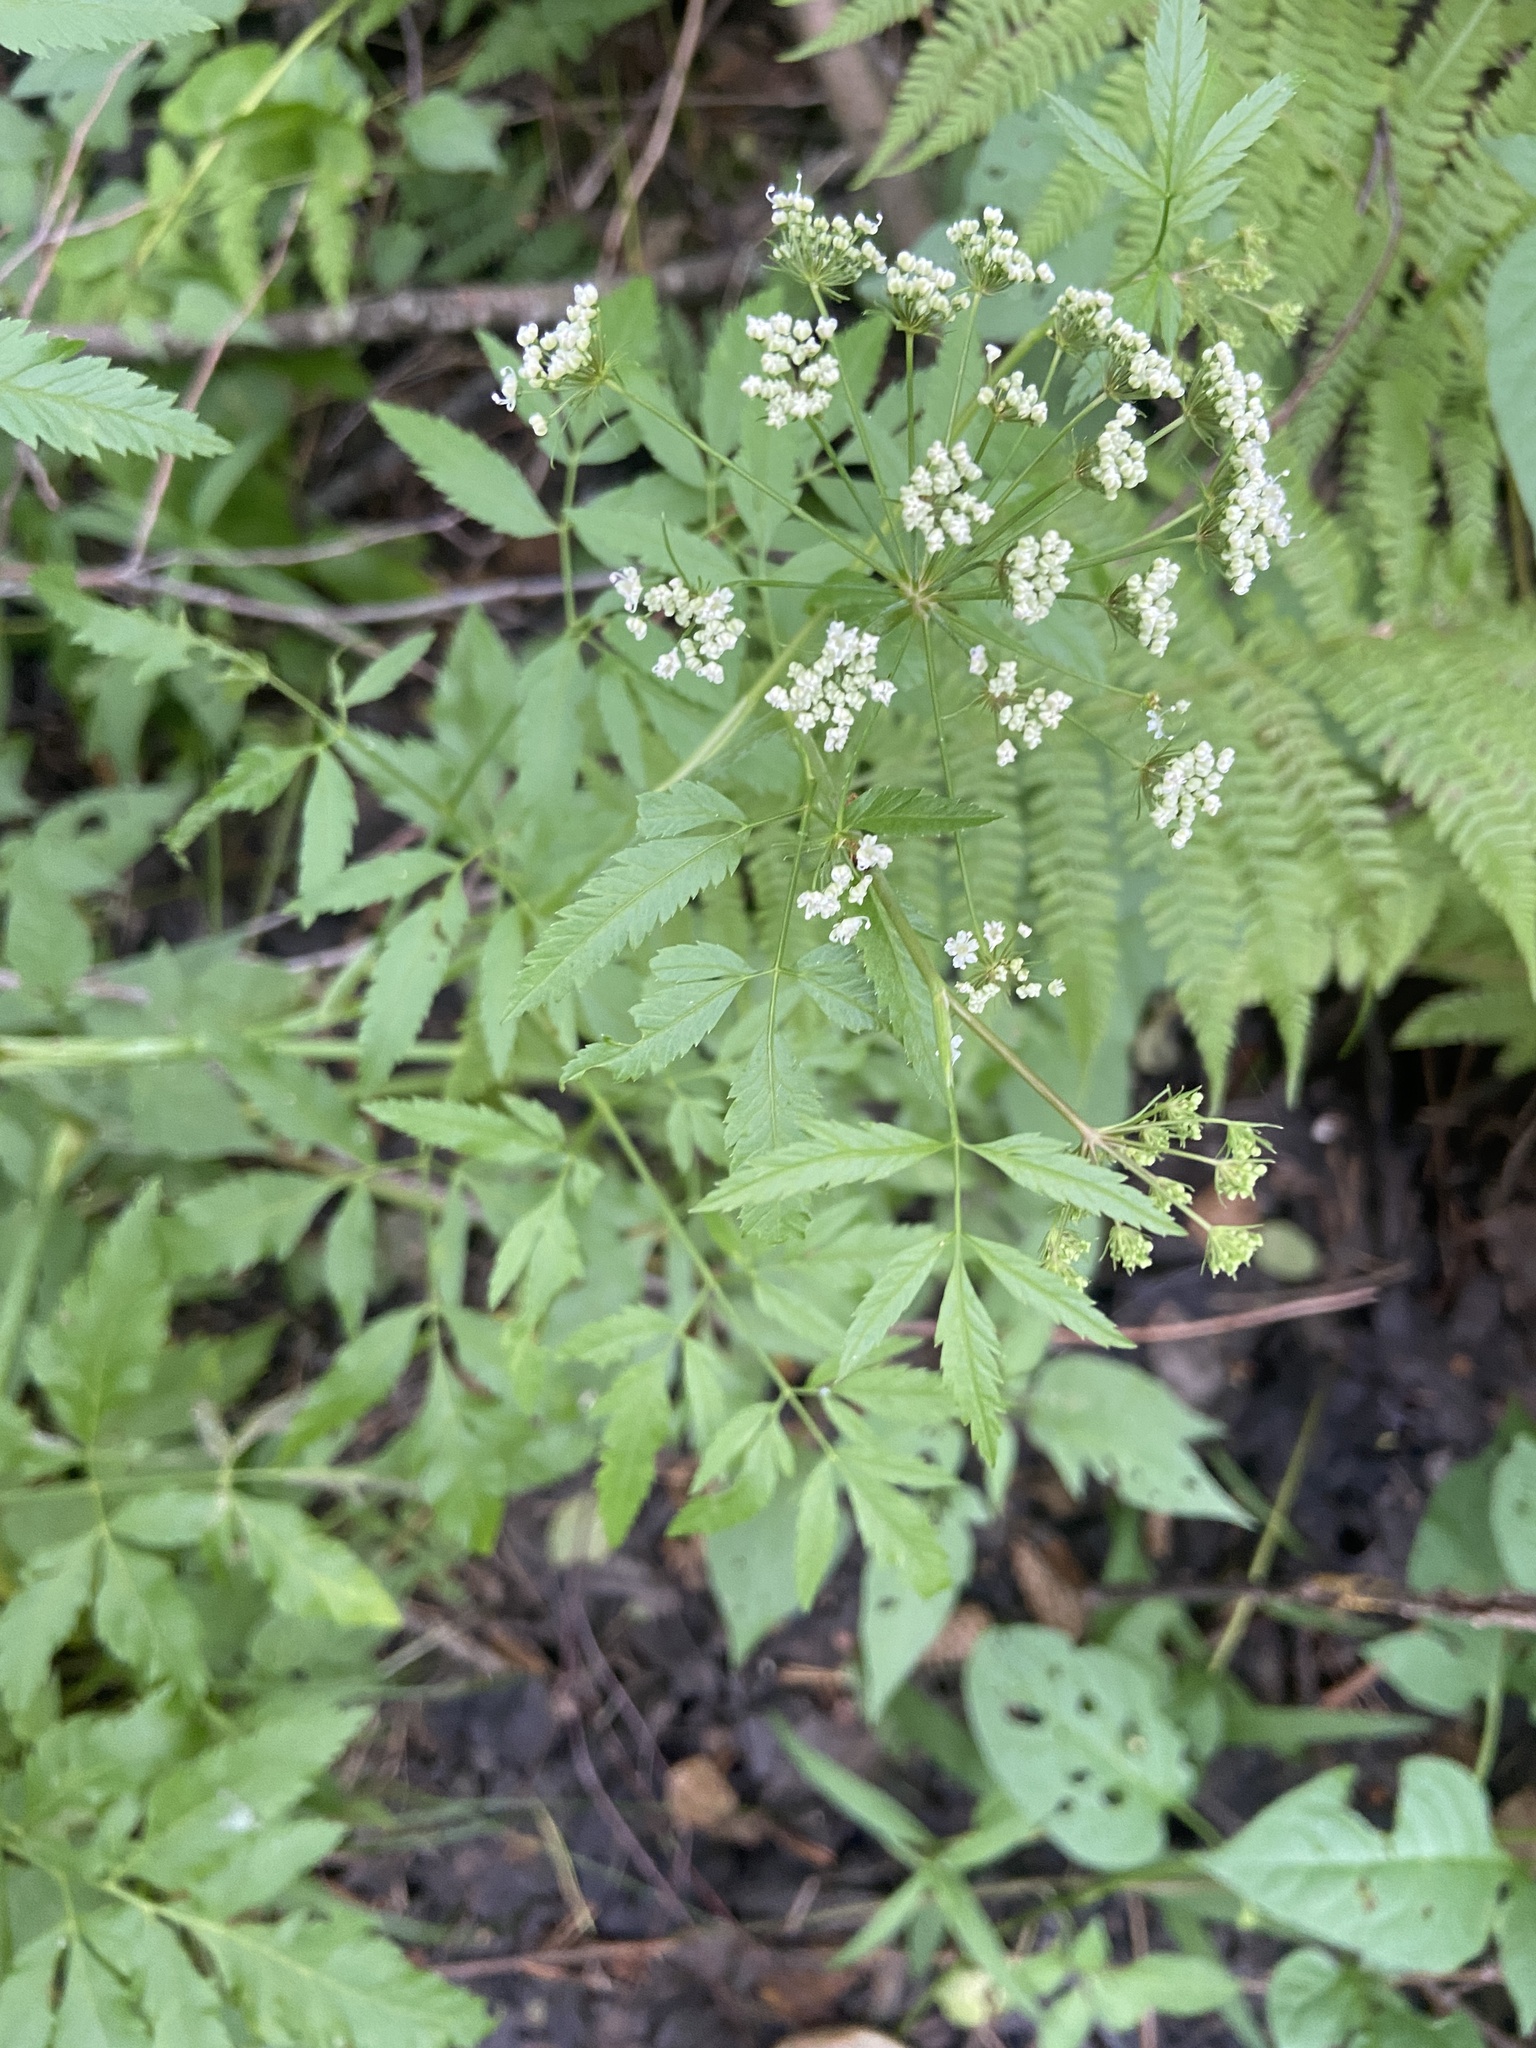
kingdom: Plantae
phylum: Tracheophyta
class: Magnoliopsida
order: Apiales
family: Apiaceae
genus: Cicuta
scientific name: Cicuta virosa
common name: Cowbane
